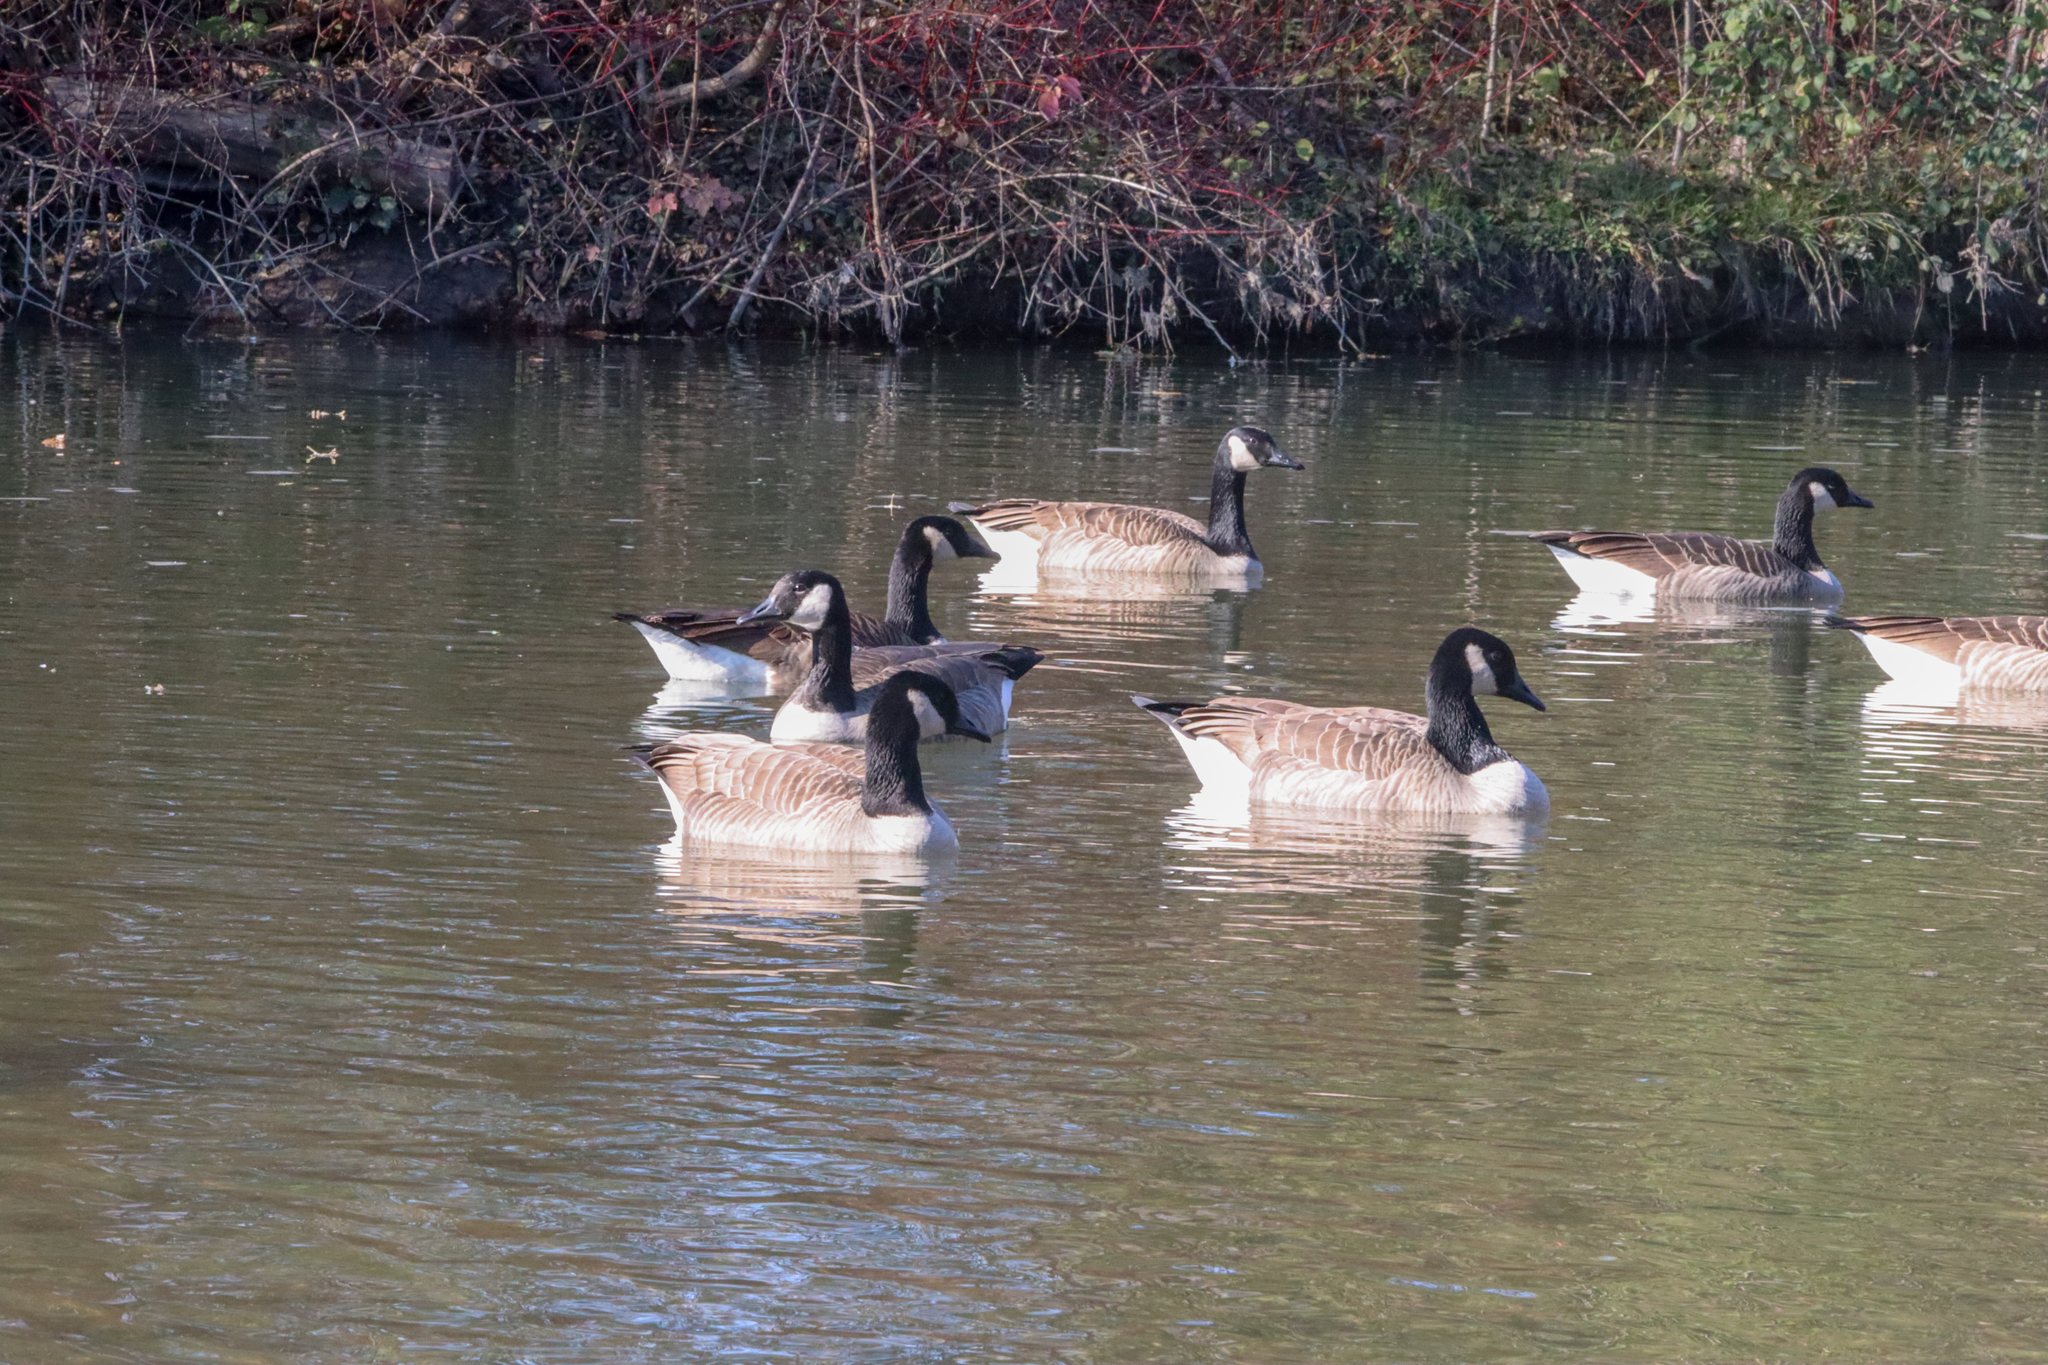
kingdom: Animalia
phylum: Chordata
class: Aves
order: Anseriformes
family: Anatidae
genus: Branta
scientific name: Branta canadensis
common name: Canada goose
